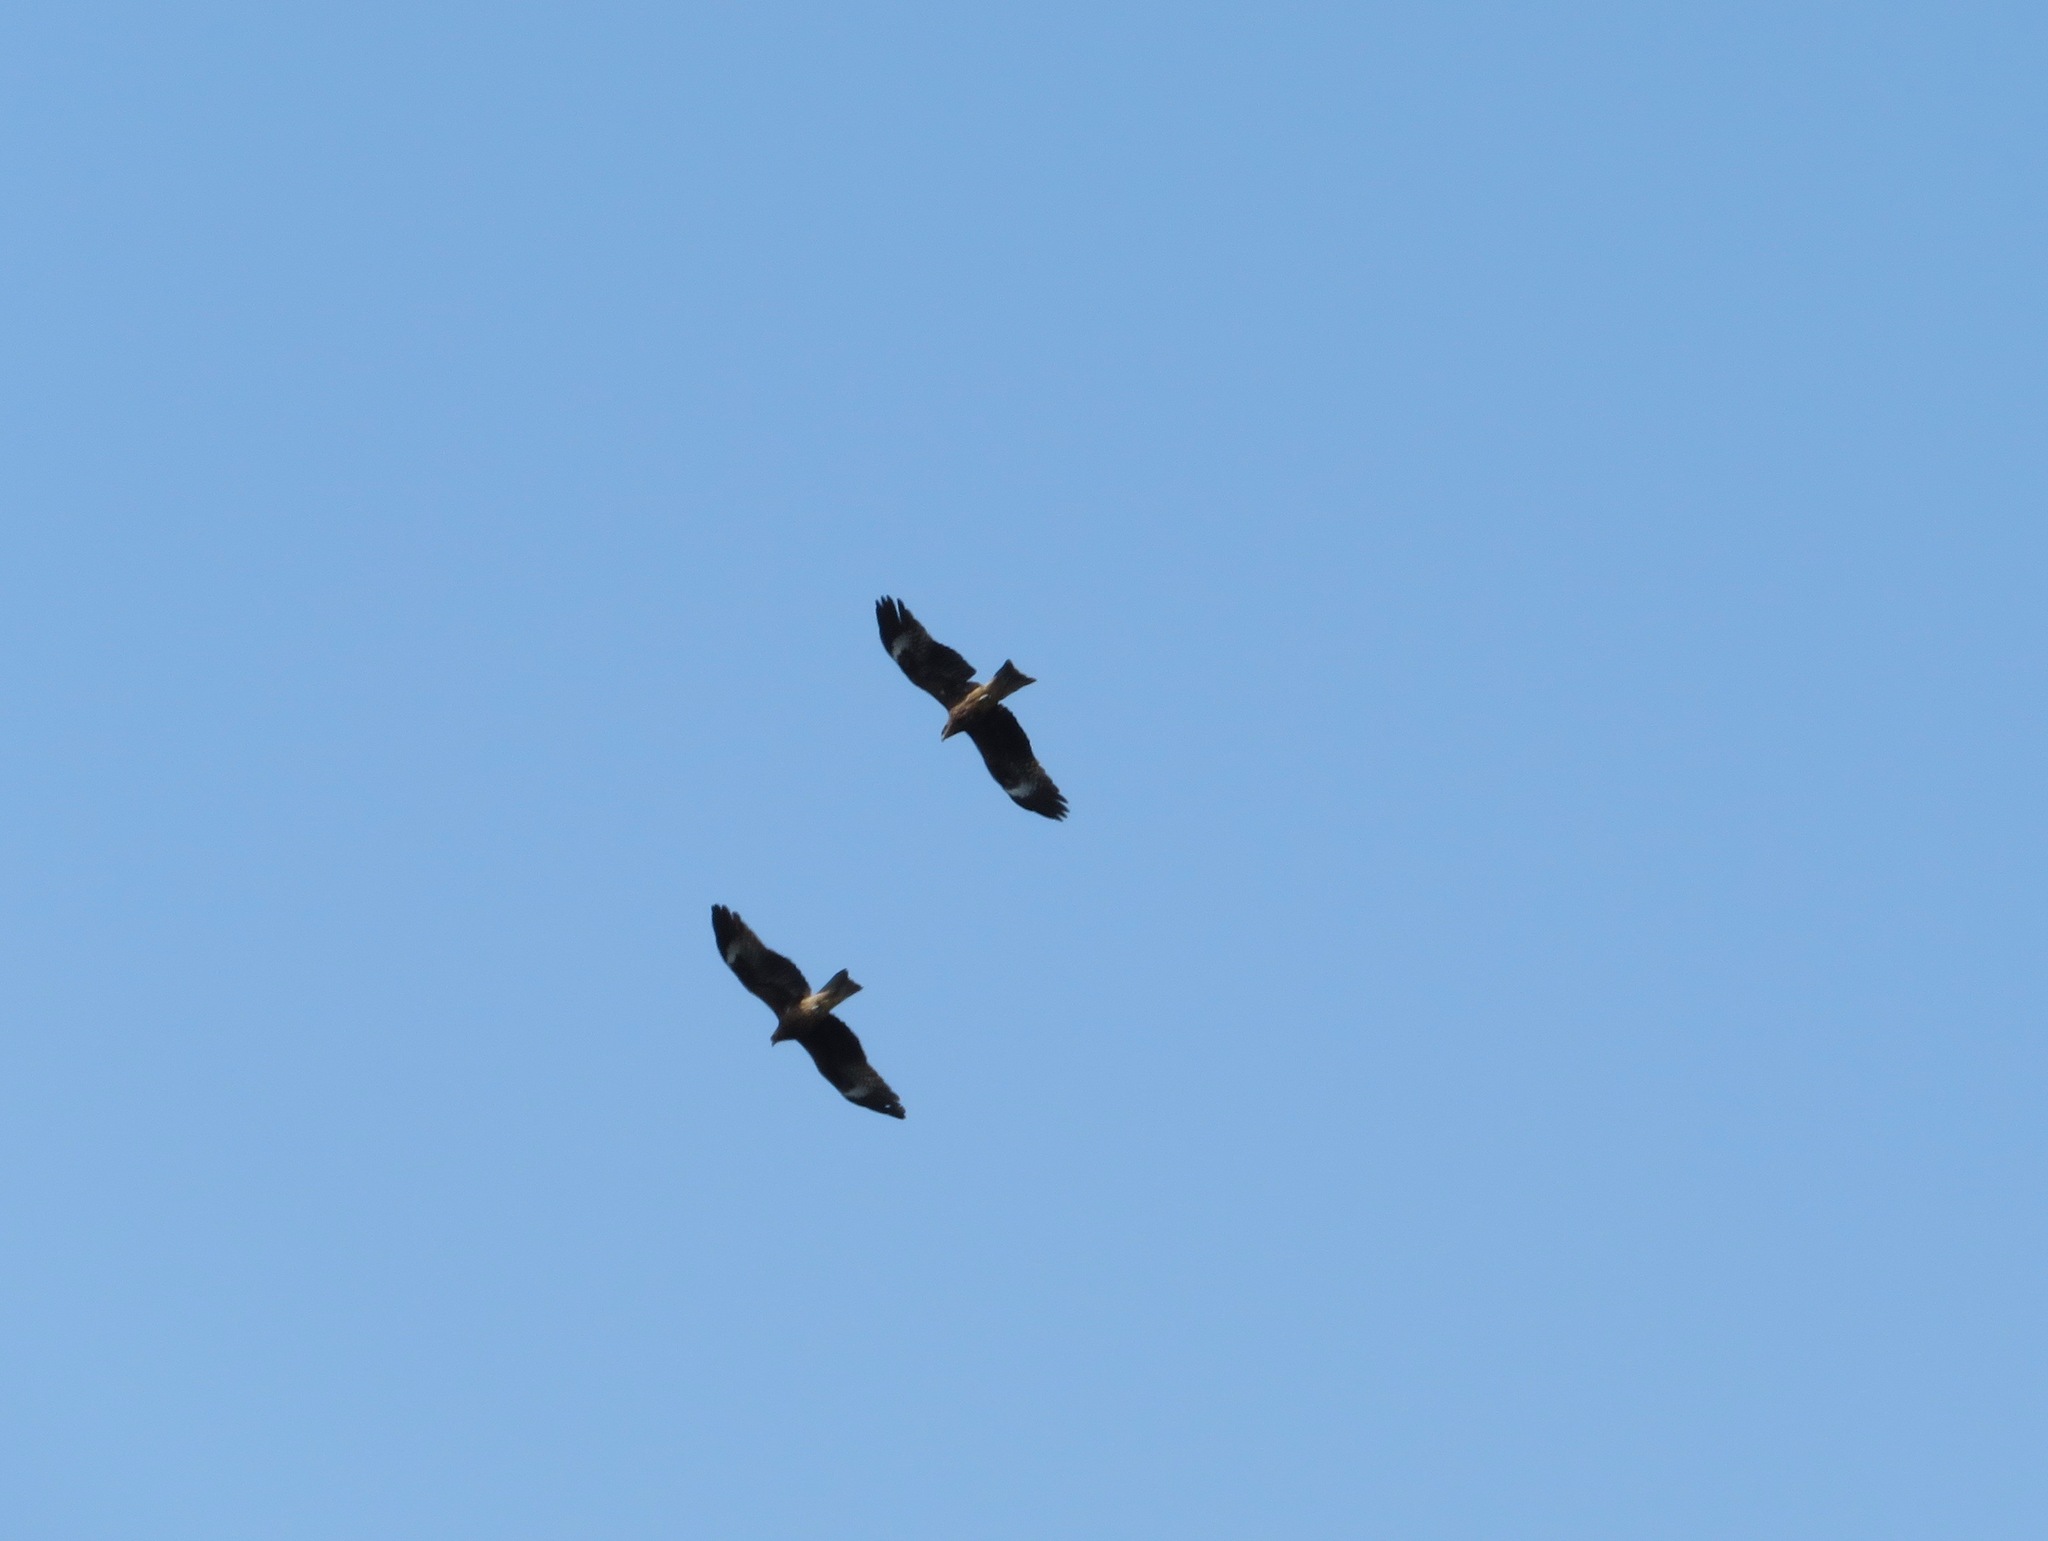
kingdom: Animalia
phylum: Chordata
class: Aves
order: Accipitriformes
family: Accipitridae
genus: Milvus
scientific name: Milvus migrans
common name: Black kite
